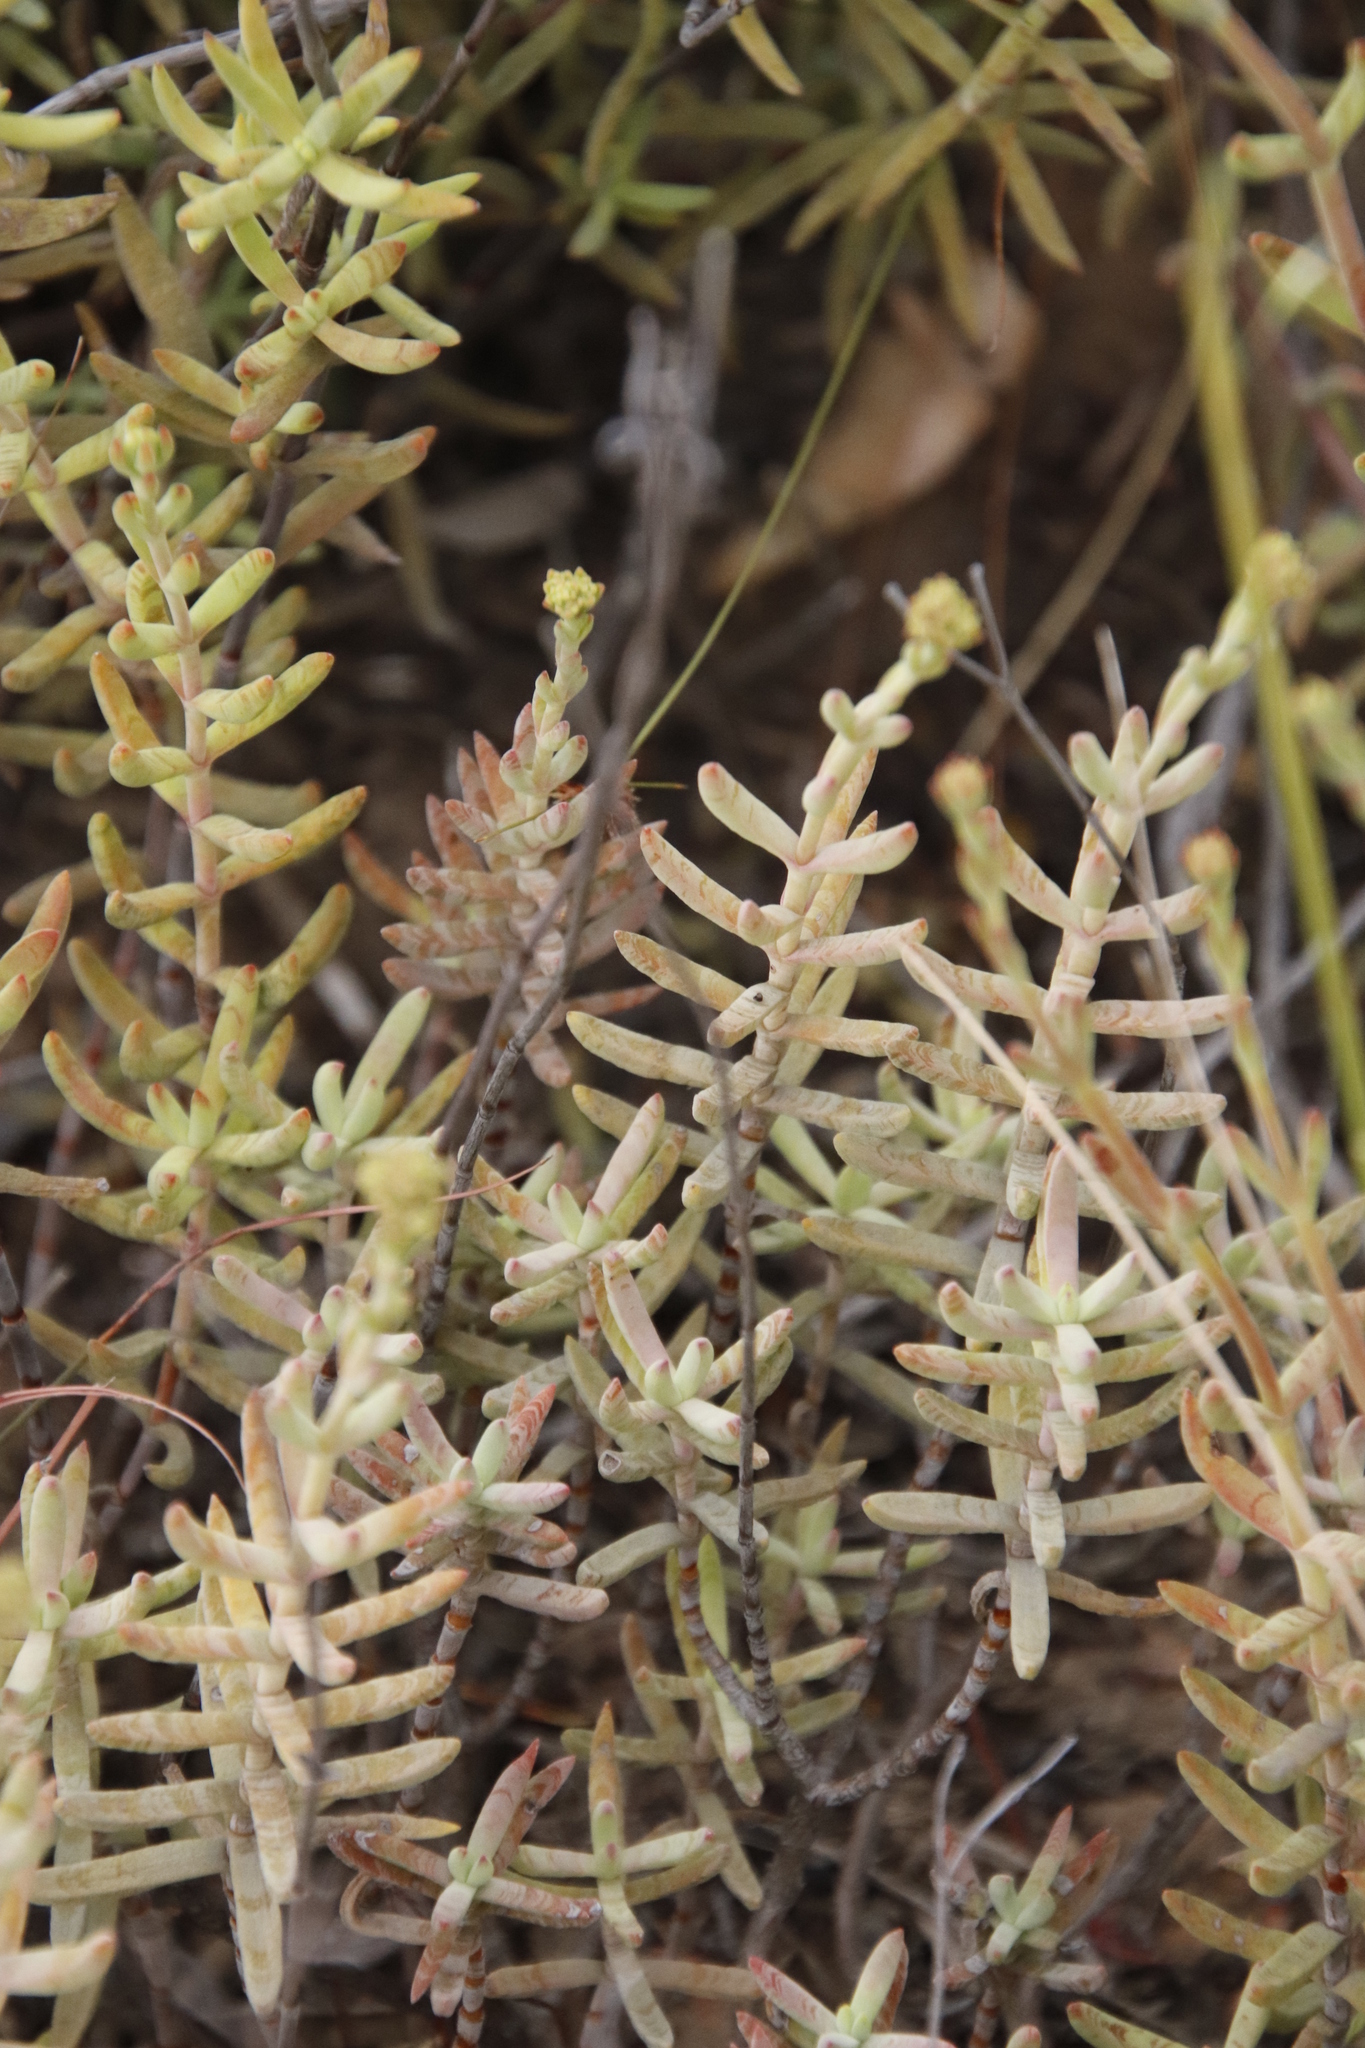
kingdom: Plantae
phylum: Tracheophyta
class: Magnoliopsida
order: Saxifragales
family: Crassulaceae
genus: Crassula
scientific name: Crassula mollis
